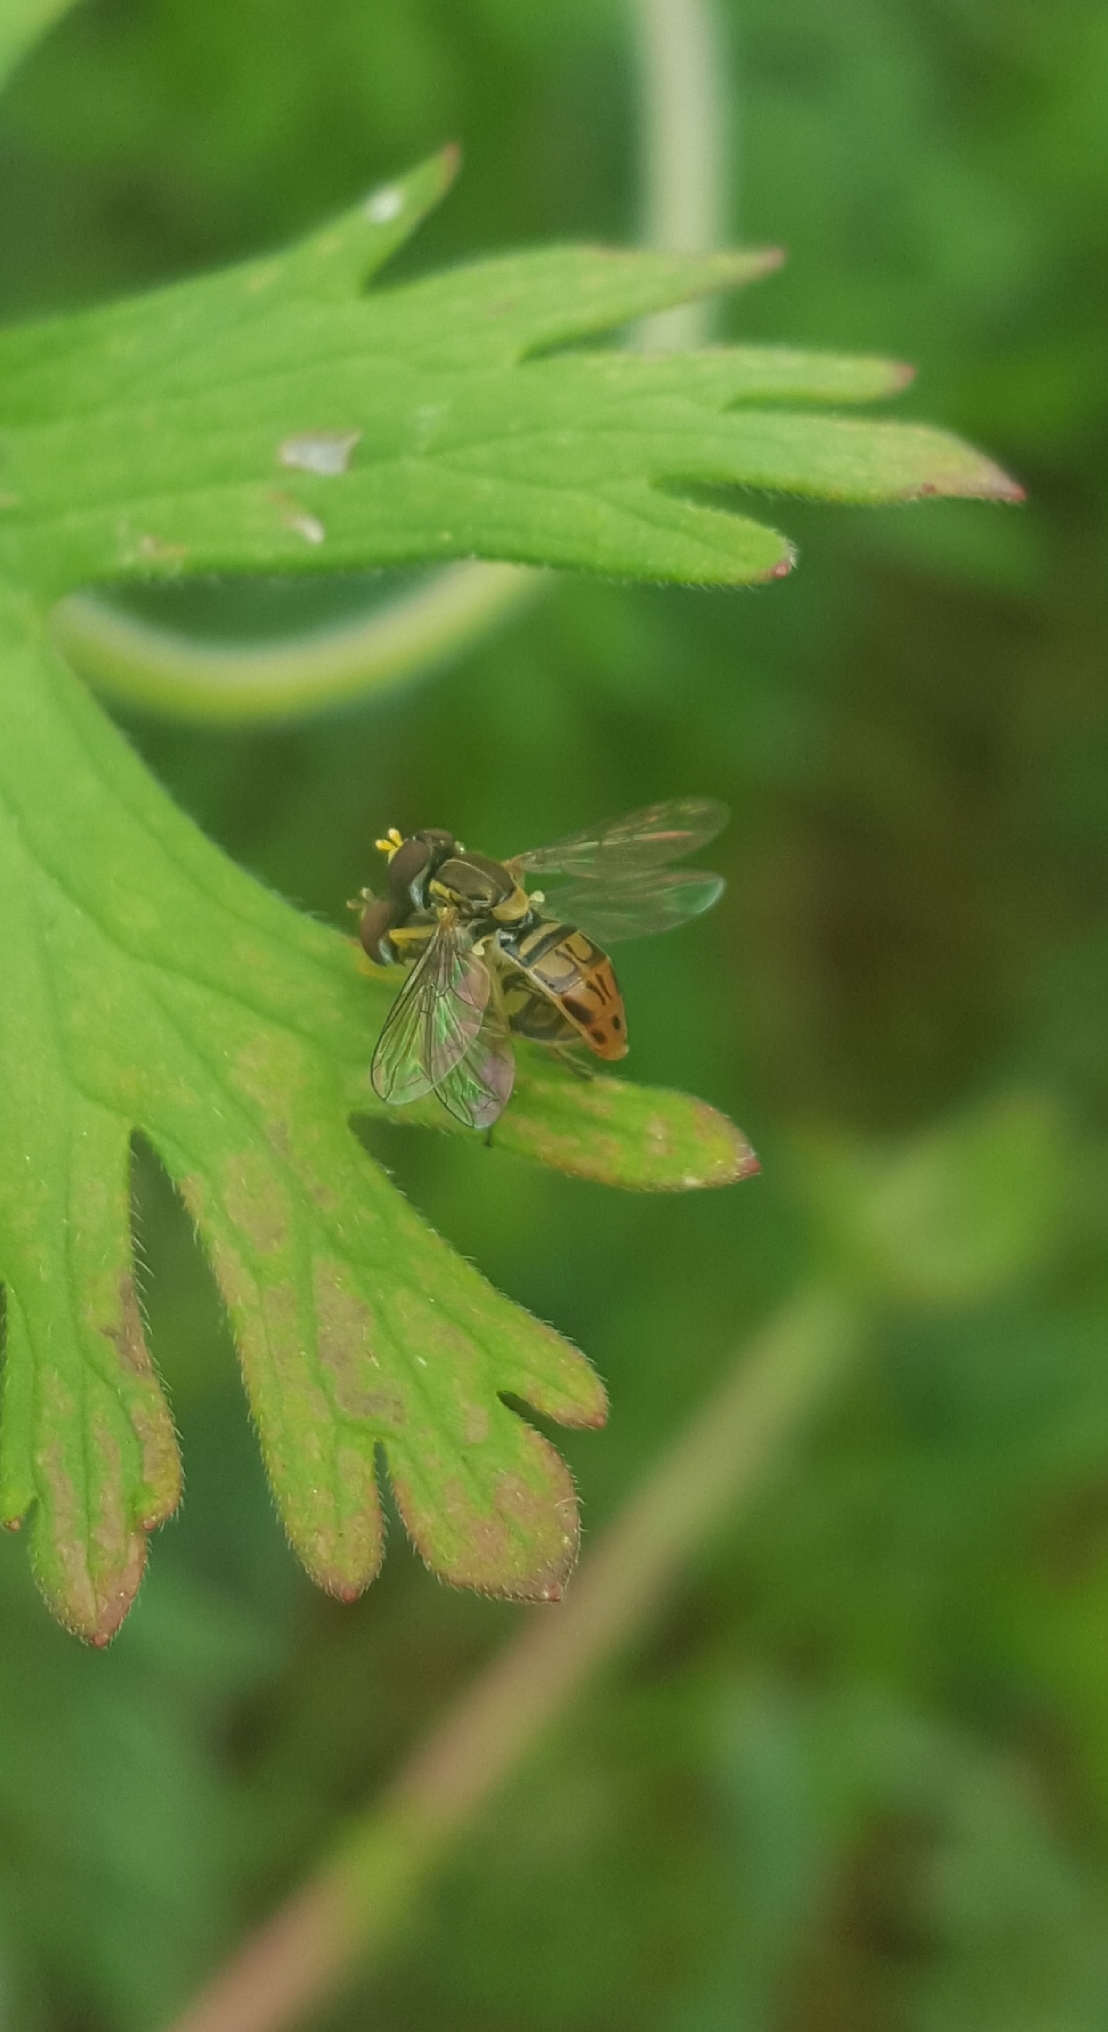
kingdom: Animalia
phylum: Arthropoda
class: Insecta
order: Diptera
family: Syrphidae
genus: Toxomerus
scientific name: Toxomerus marginatus
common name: Syrphid fly
